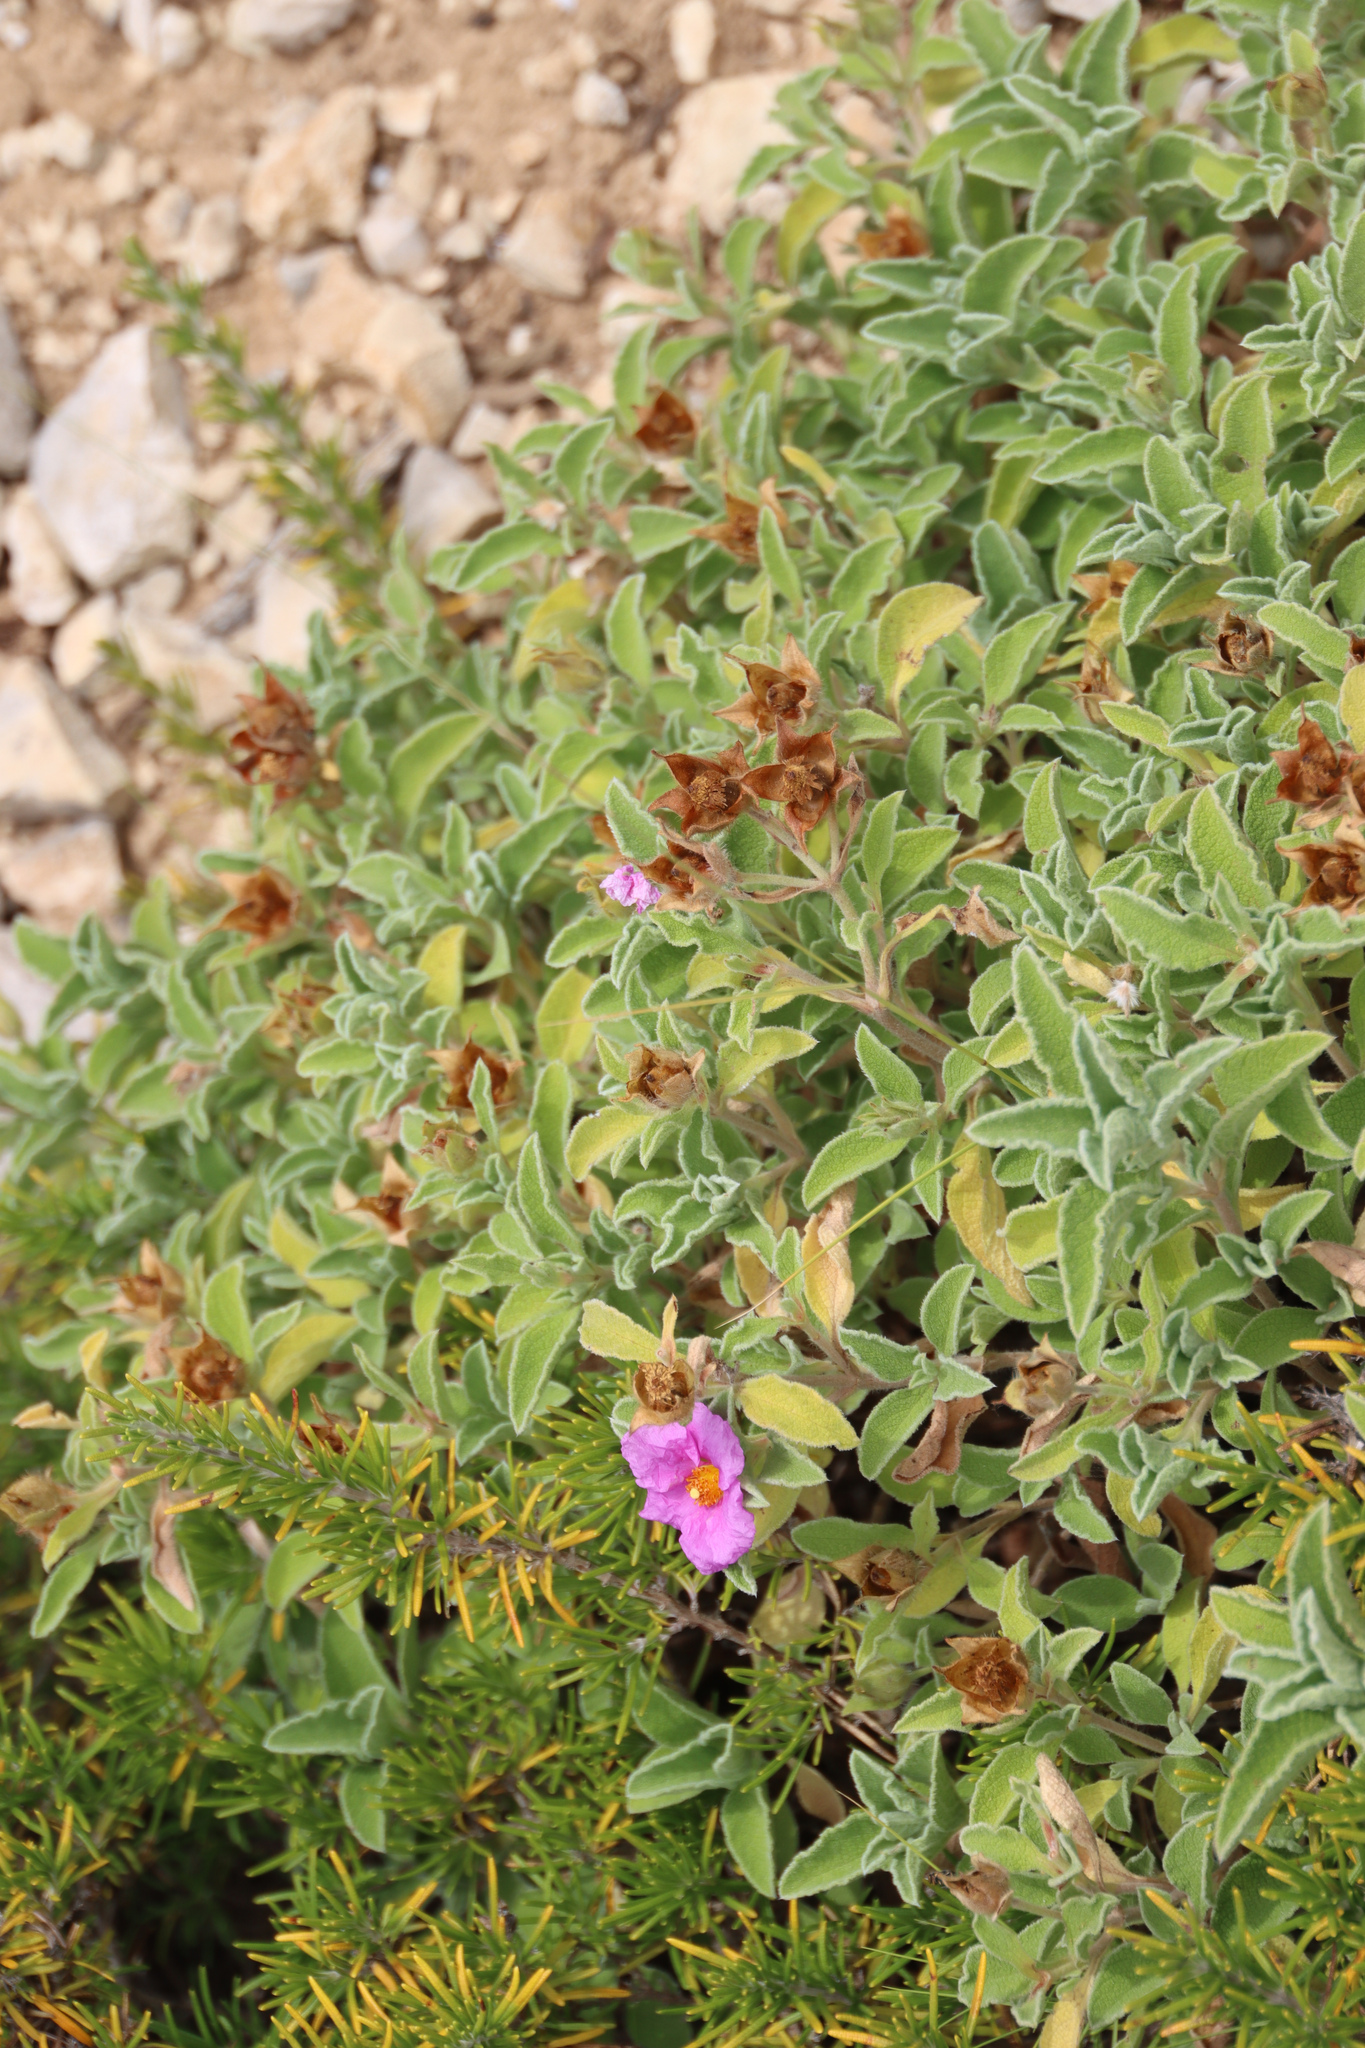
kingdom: Plantae
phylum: Tracheophyta
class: Magnoliopsida
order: Malvales
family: Cistaceae
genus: Cistus
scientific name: Cistus creticus
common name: Cretan rockrose
